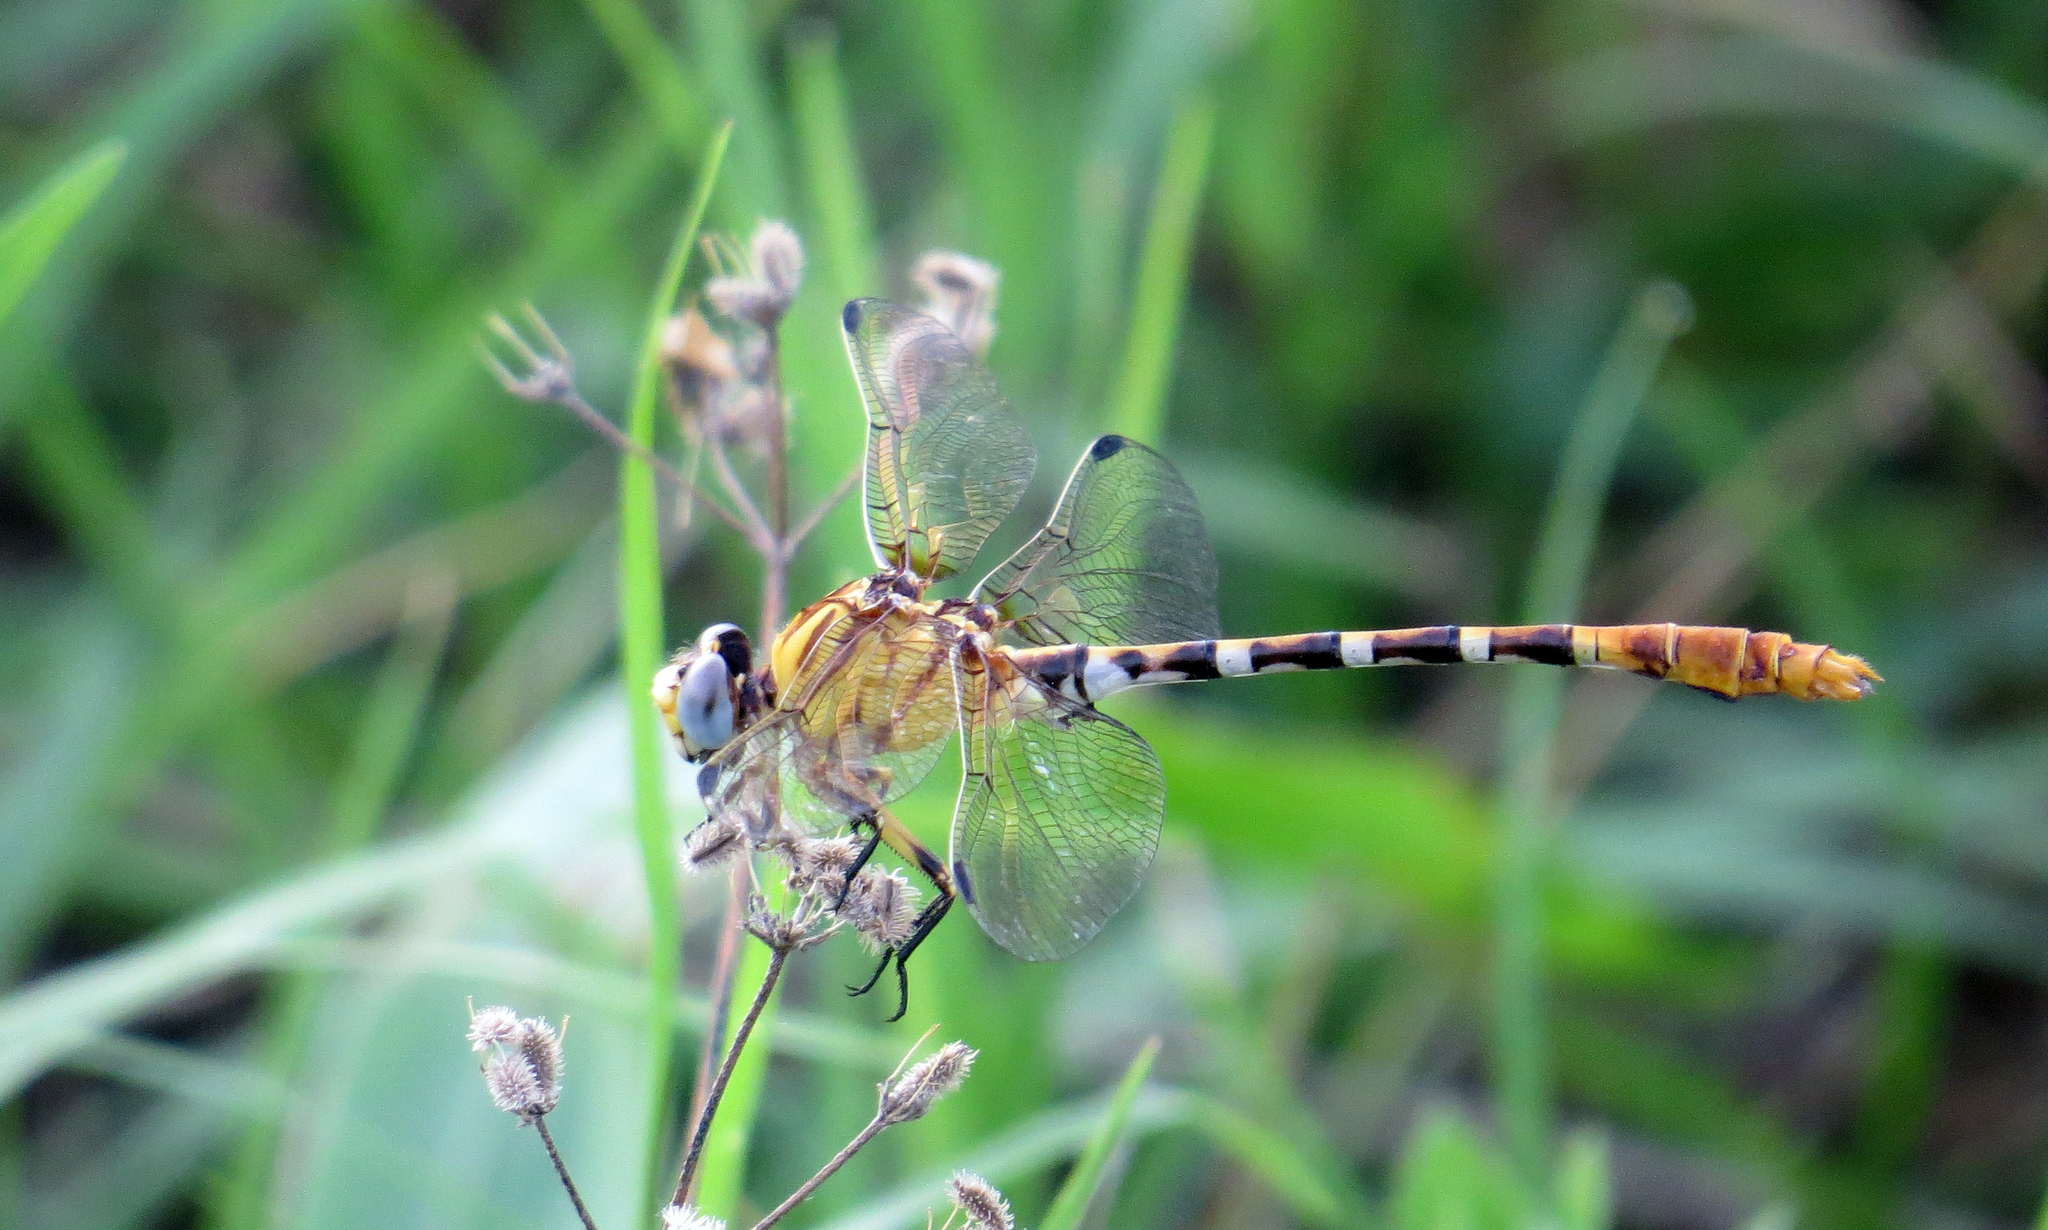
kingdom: Animalia
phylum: Arthropoda
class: Insecta
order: Odonata
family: Gomphidae
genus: Erpetogomphus
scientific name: Erpetogomphus designatus
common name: Eastern ringtail
